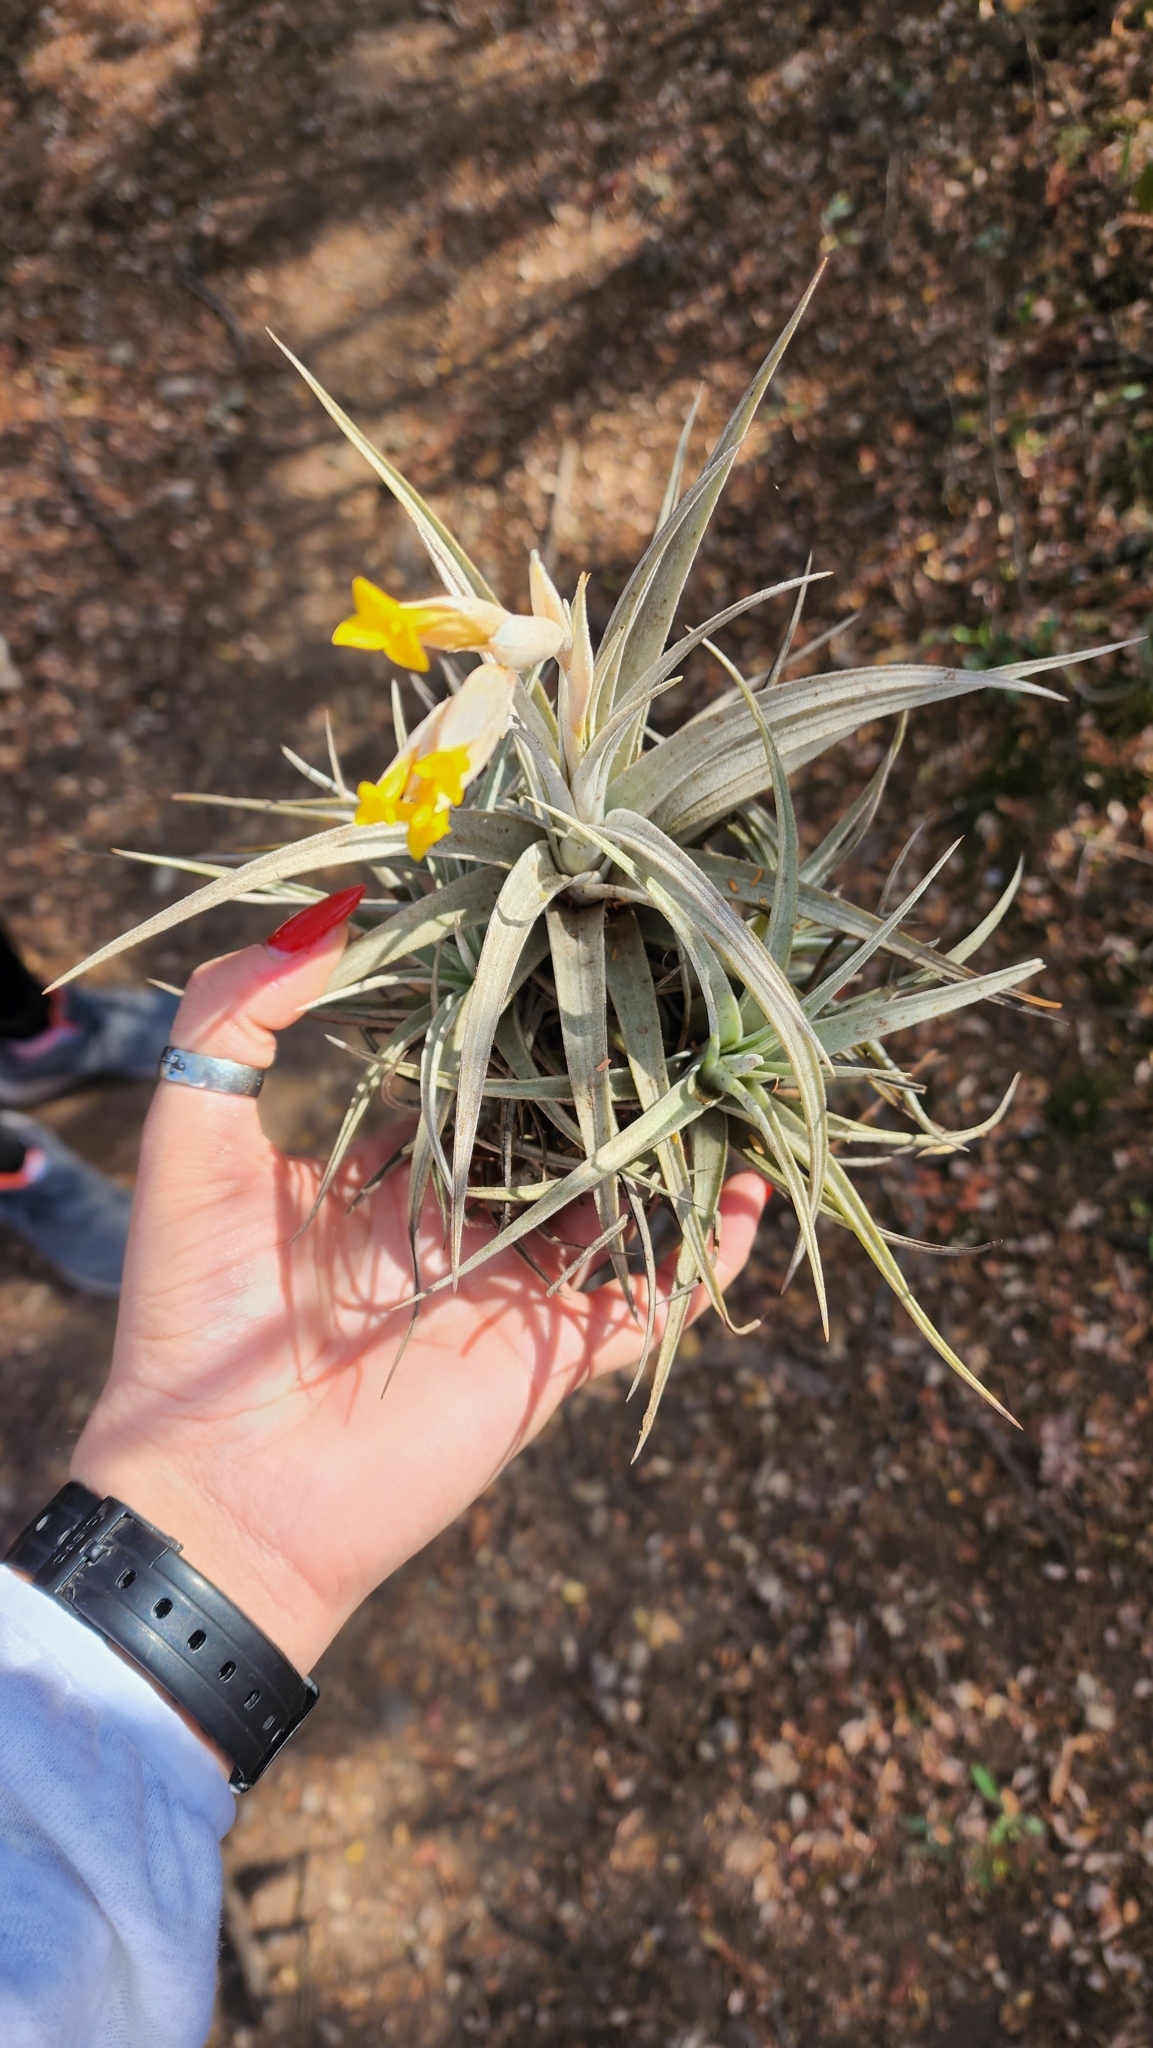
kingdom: Plantae
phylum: Tracheophyta
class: Liliopsida
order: Poales
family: Bromeliaceae
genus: Tillandsia
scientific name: Tillandsia ixioides
